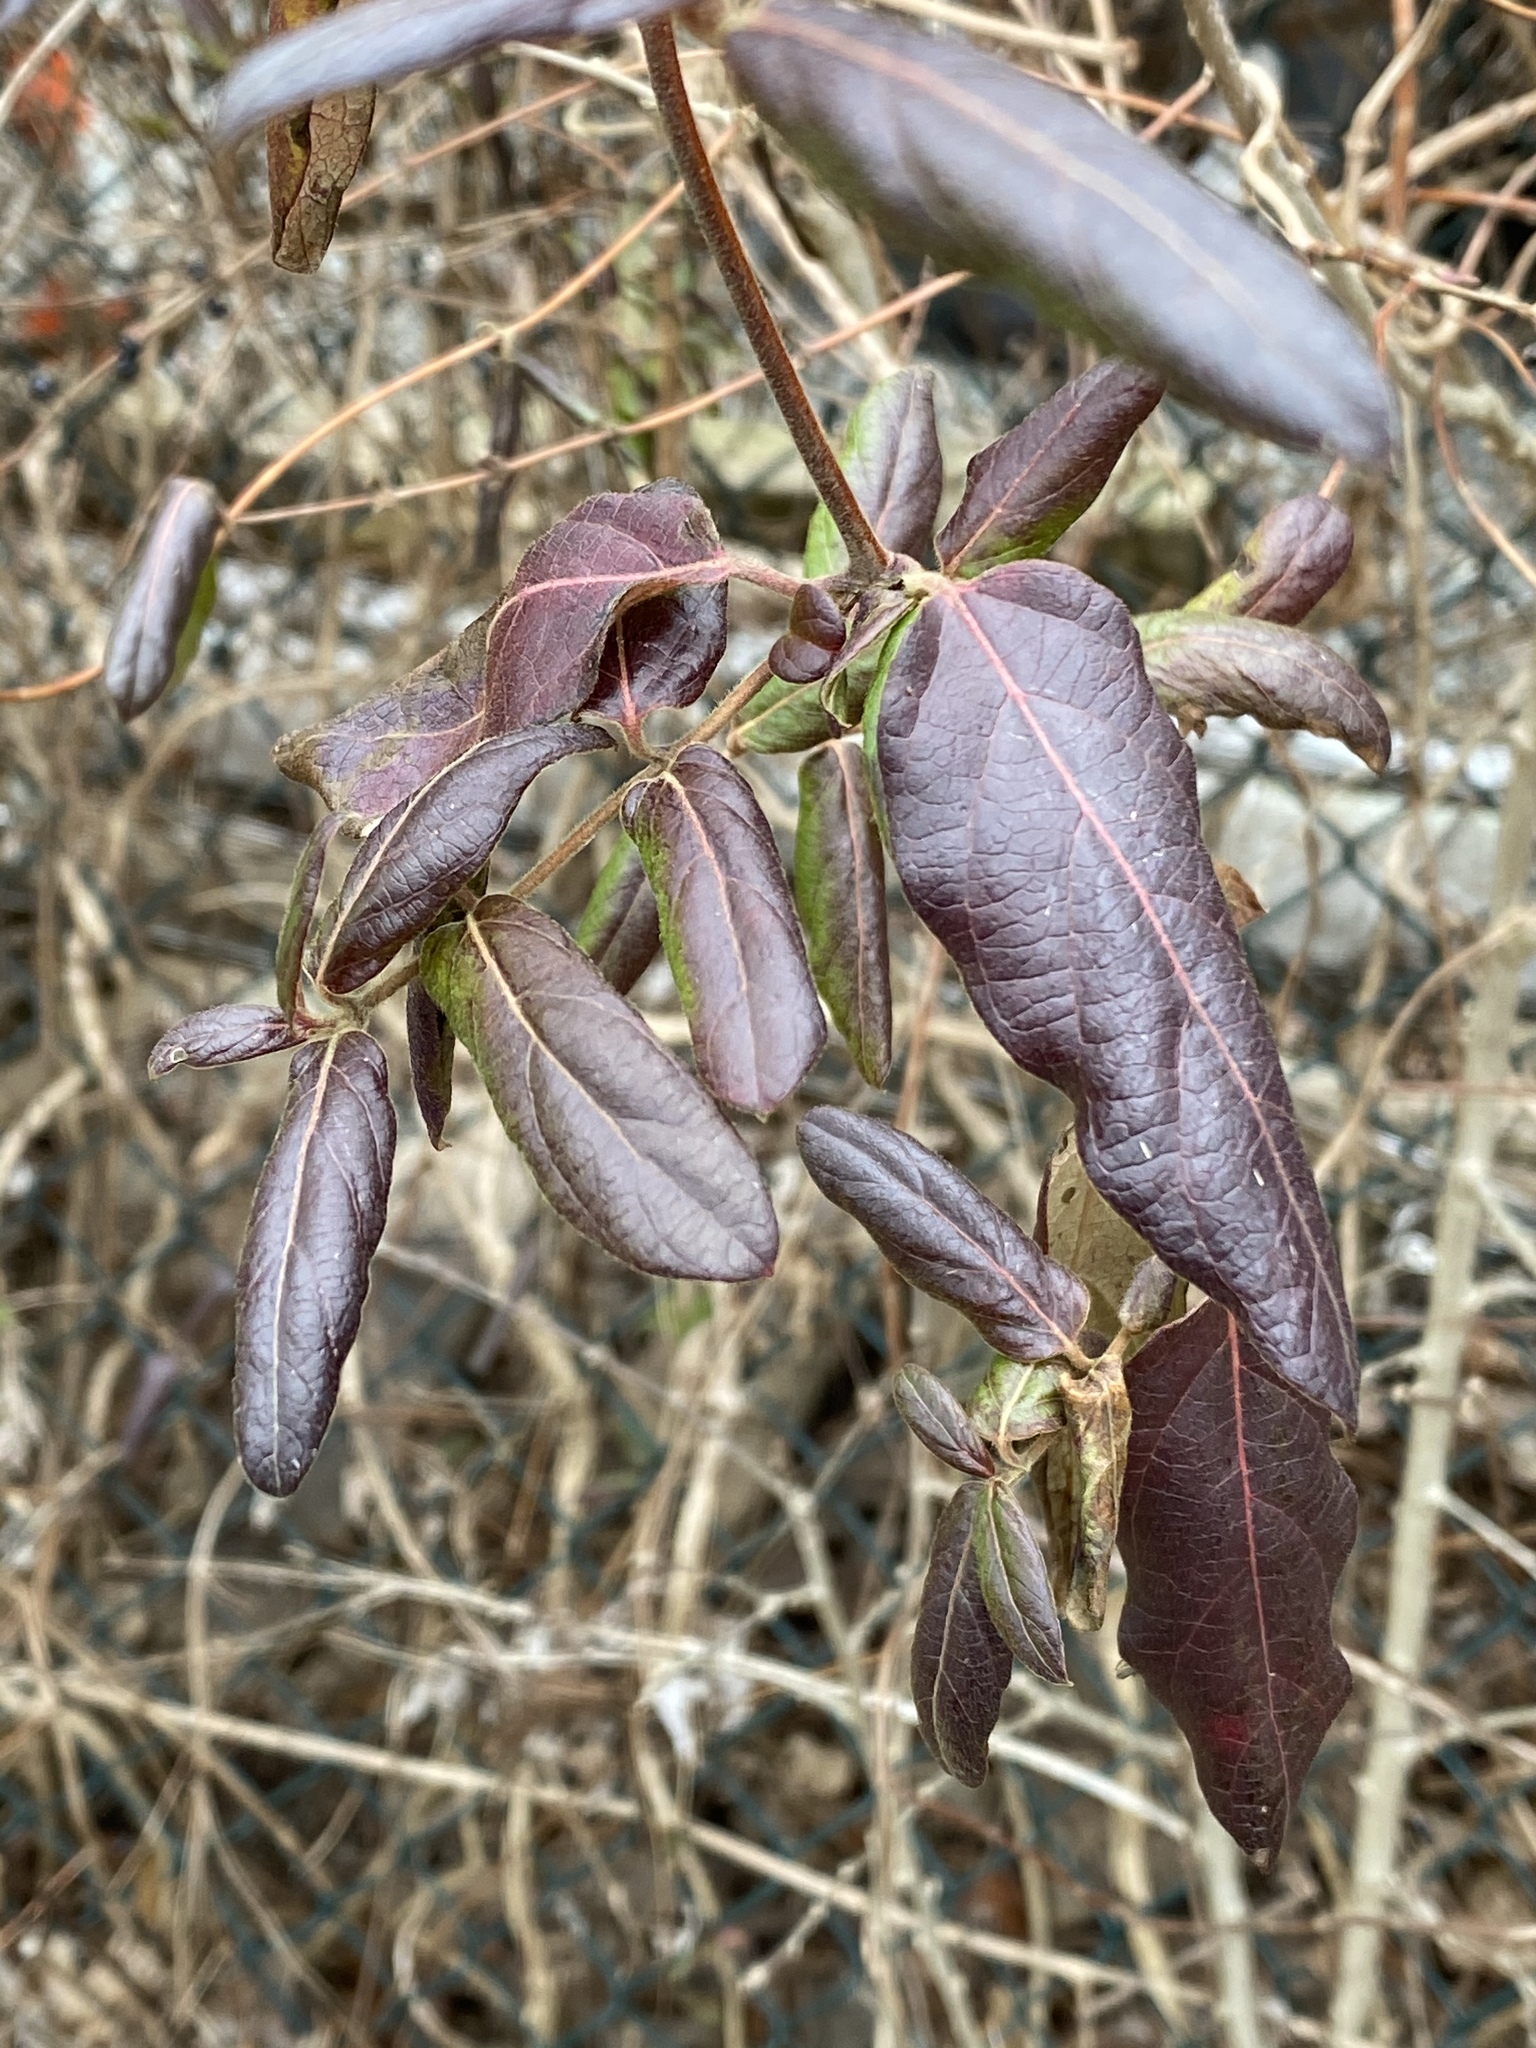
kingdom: Plantae
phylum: Tracheophyta
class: Magnoliopsida
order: Dipsacales
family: Caprifoliaceae
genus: Lonicera
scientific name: Lonicera japonica
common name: Japanese honeysuckle
